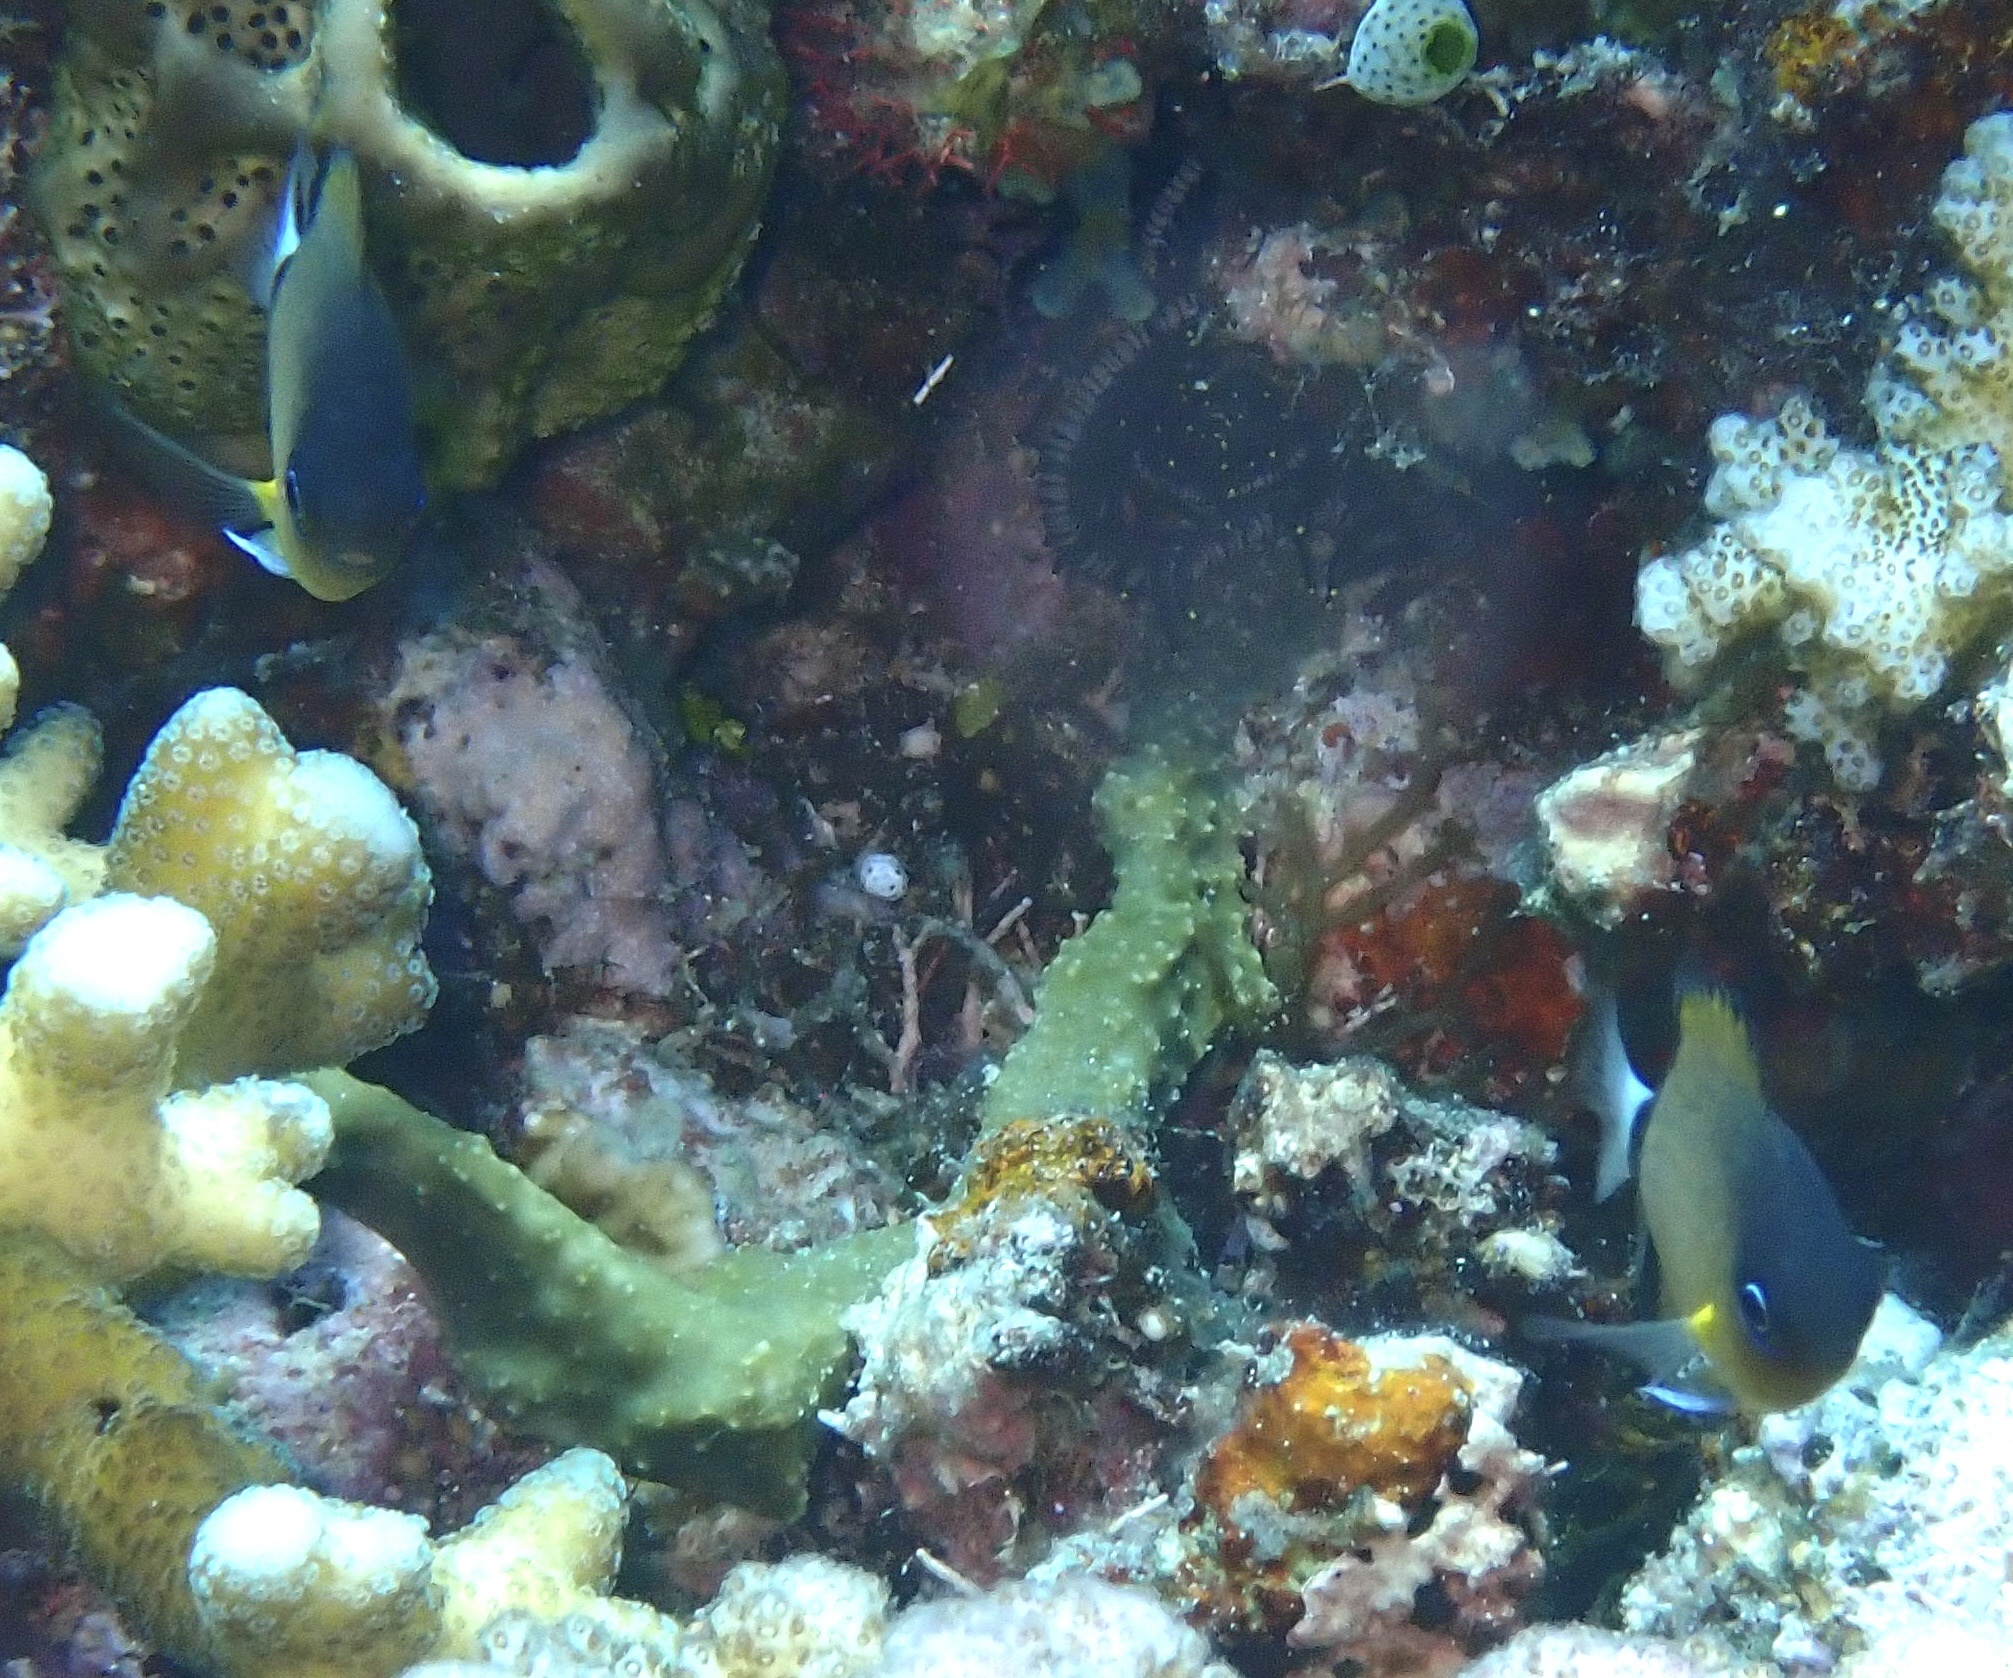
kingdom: Animalia
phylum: Chordata
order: Perciformes
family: Pomacentridae
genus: Chromis
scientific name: Chromis retrofasciata
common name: Black-bar chromis
